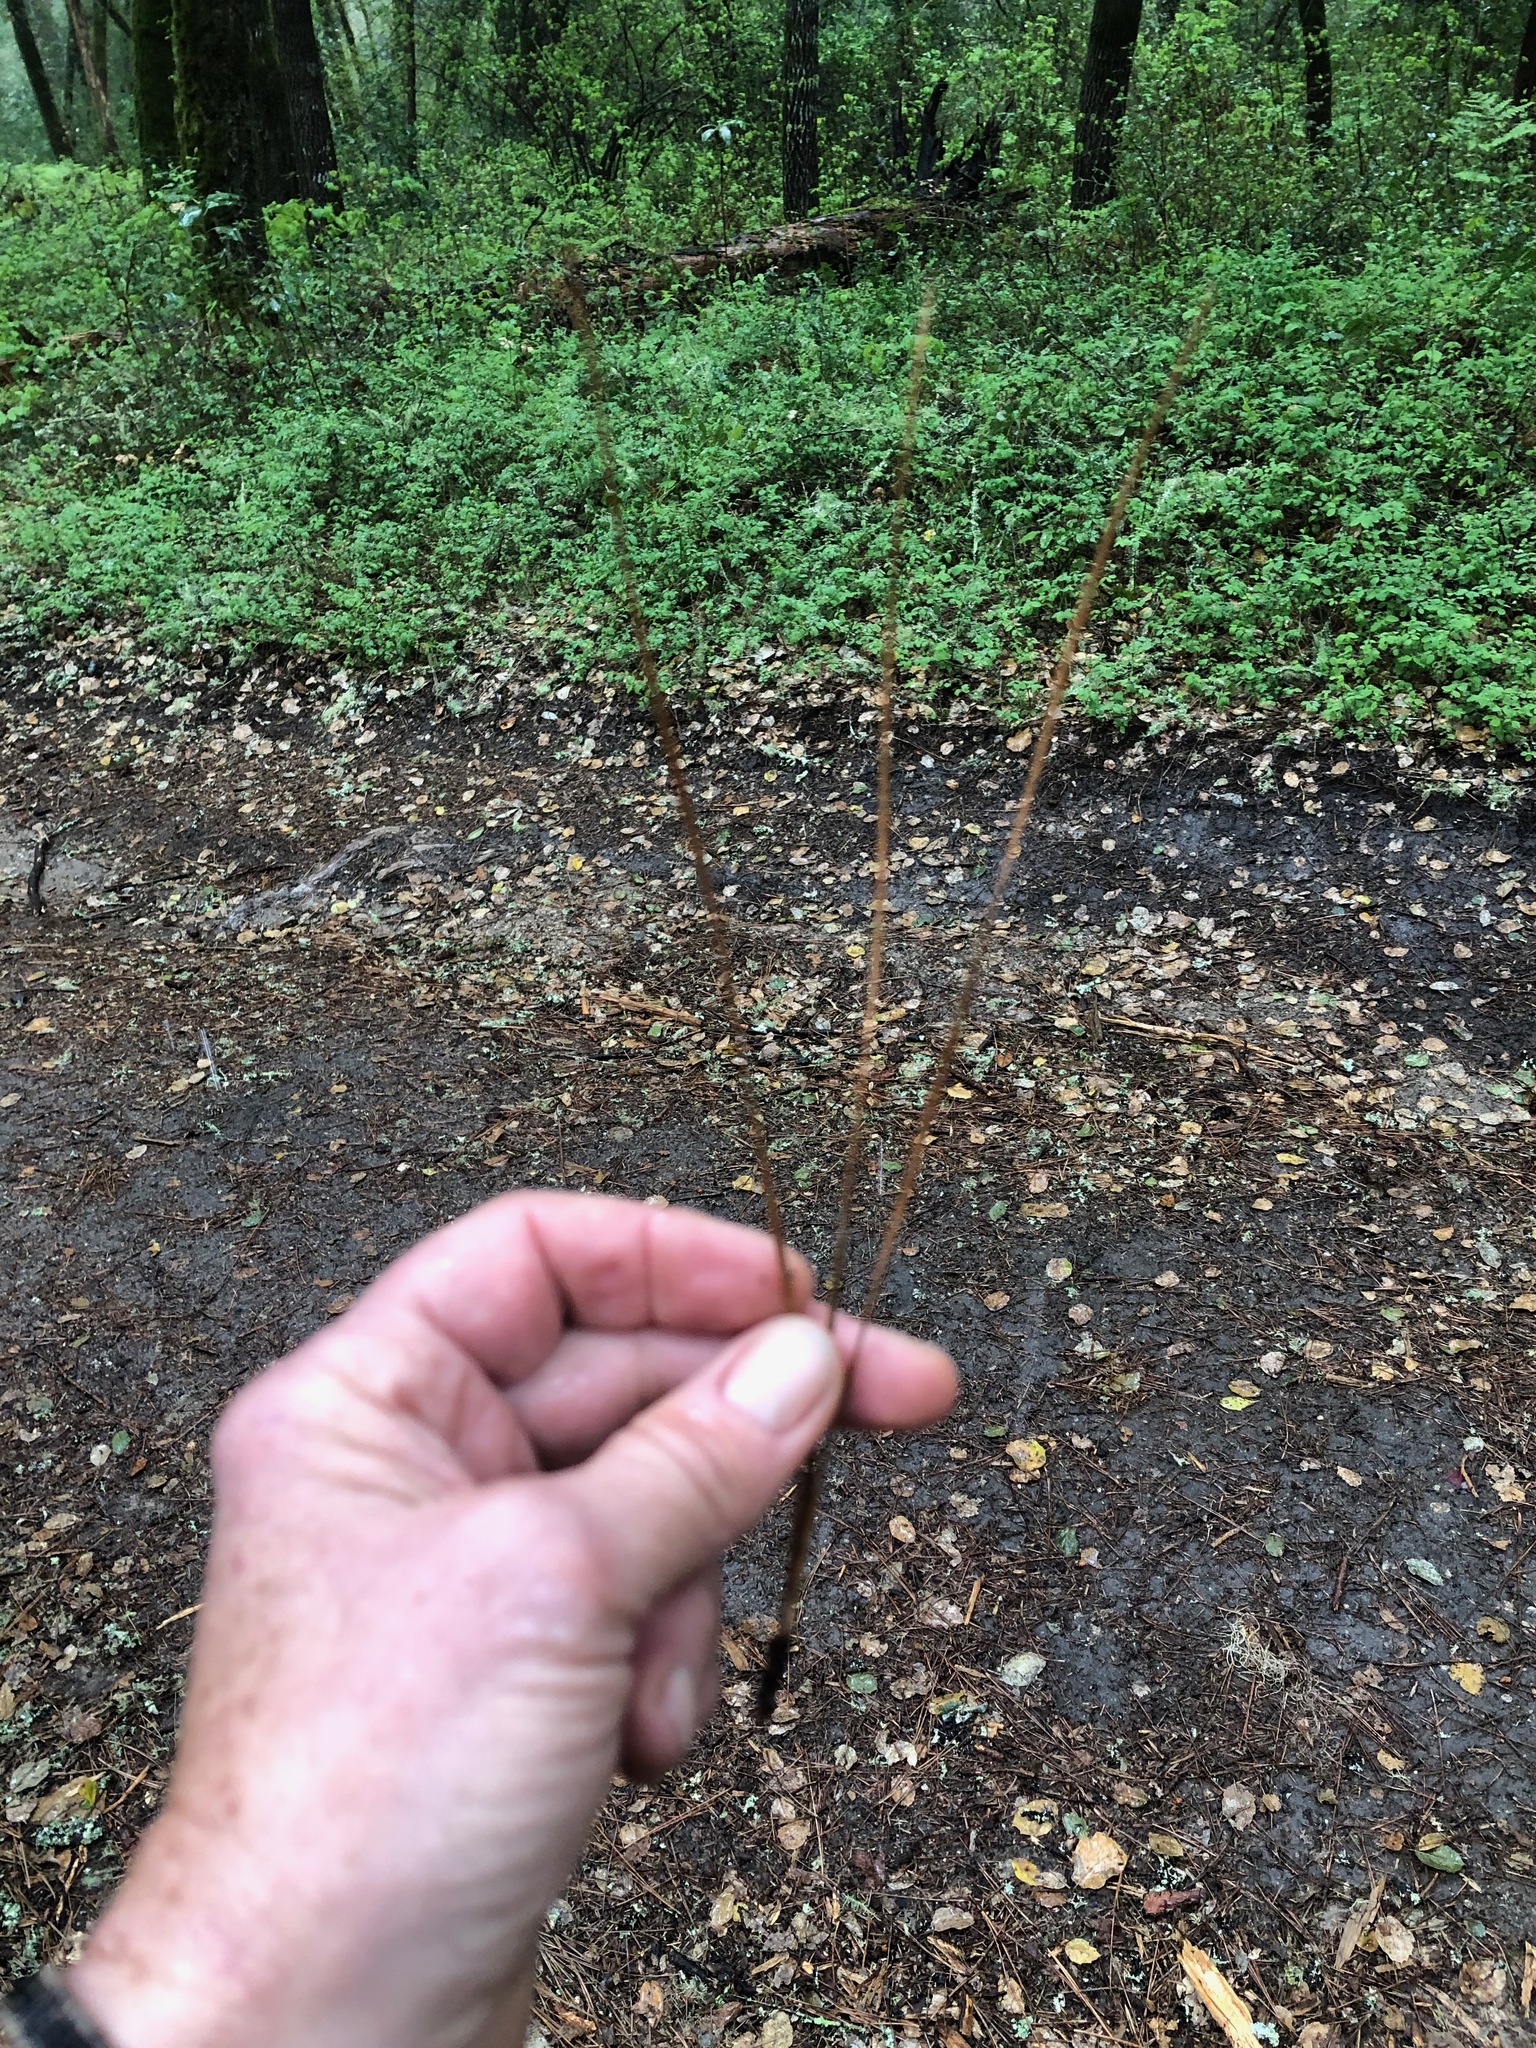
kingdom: Plantae
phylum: Tracheophyta
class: Pinopsida
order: Pinales
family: Pinaceae
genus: Pinus
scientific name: Pinus ponderosa
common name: Western yellow-pine
